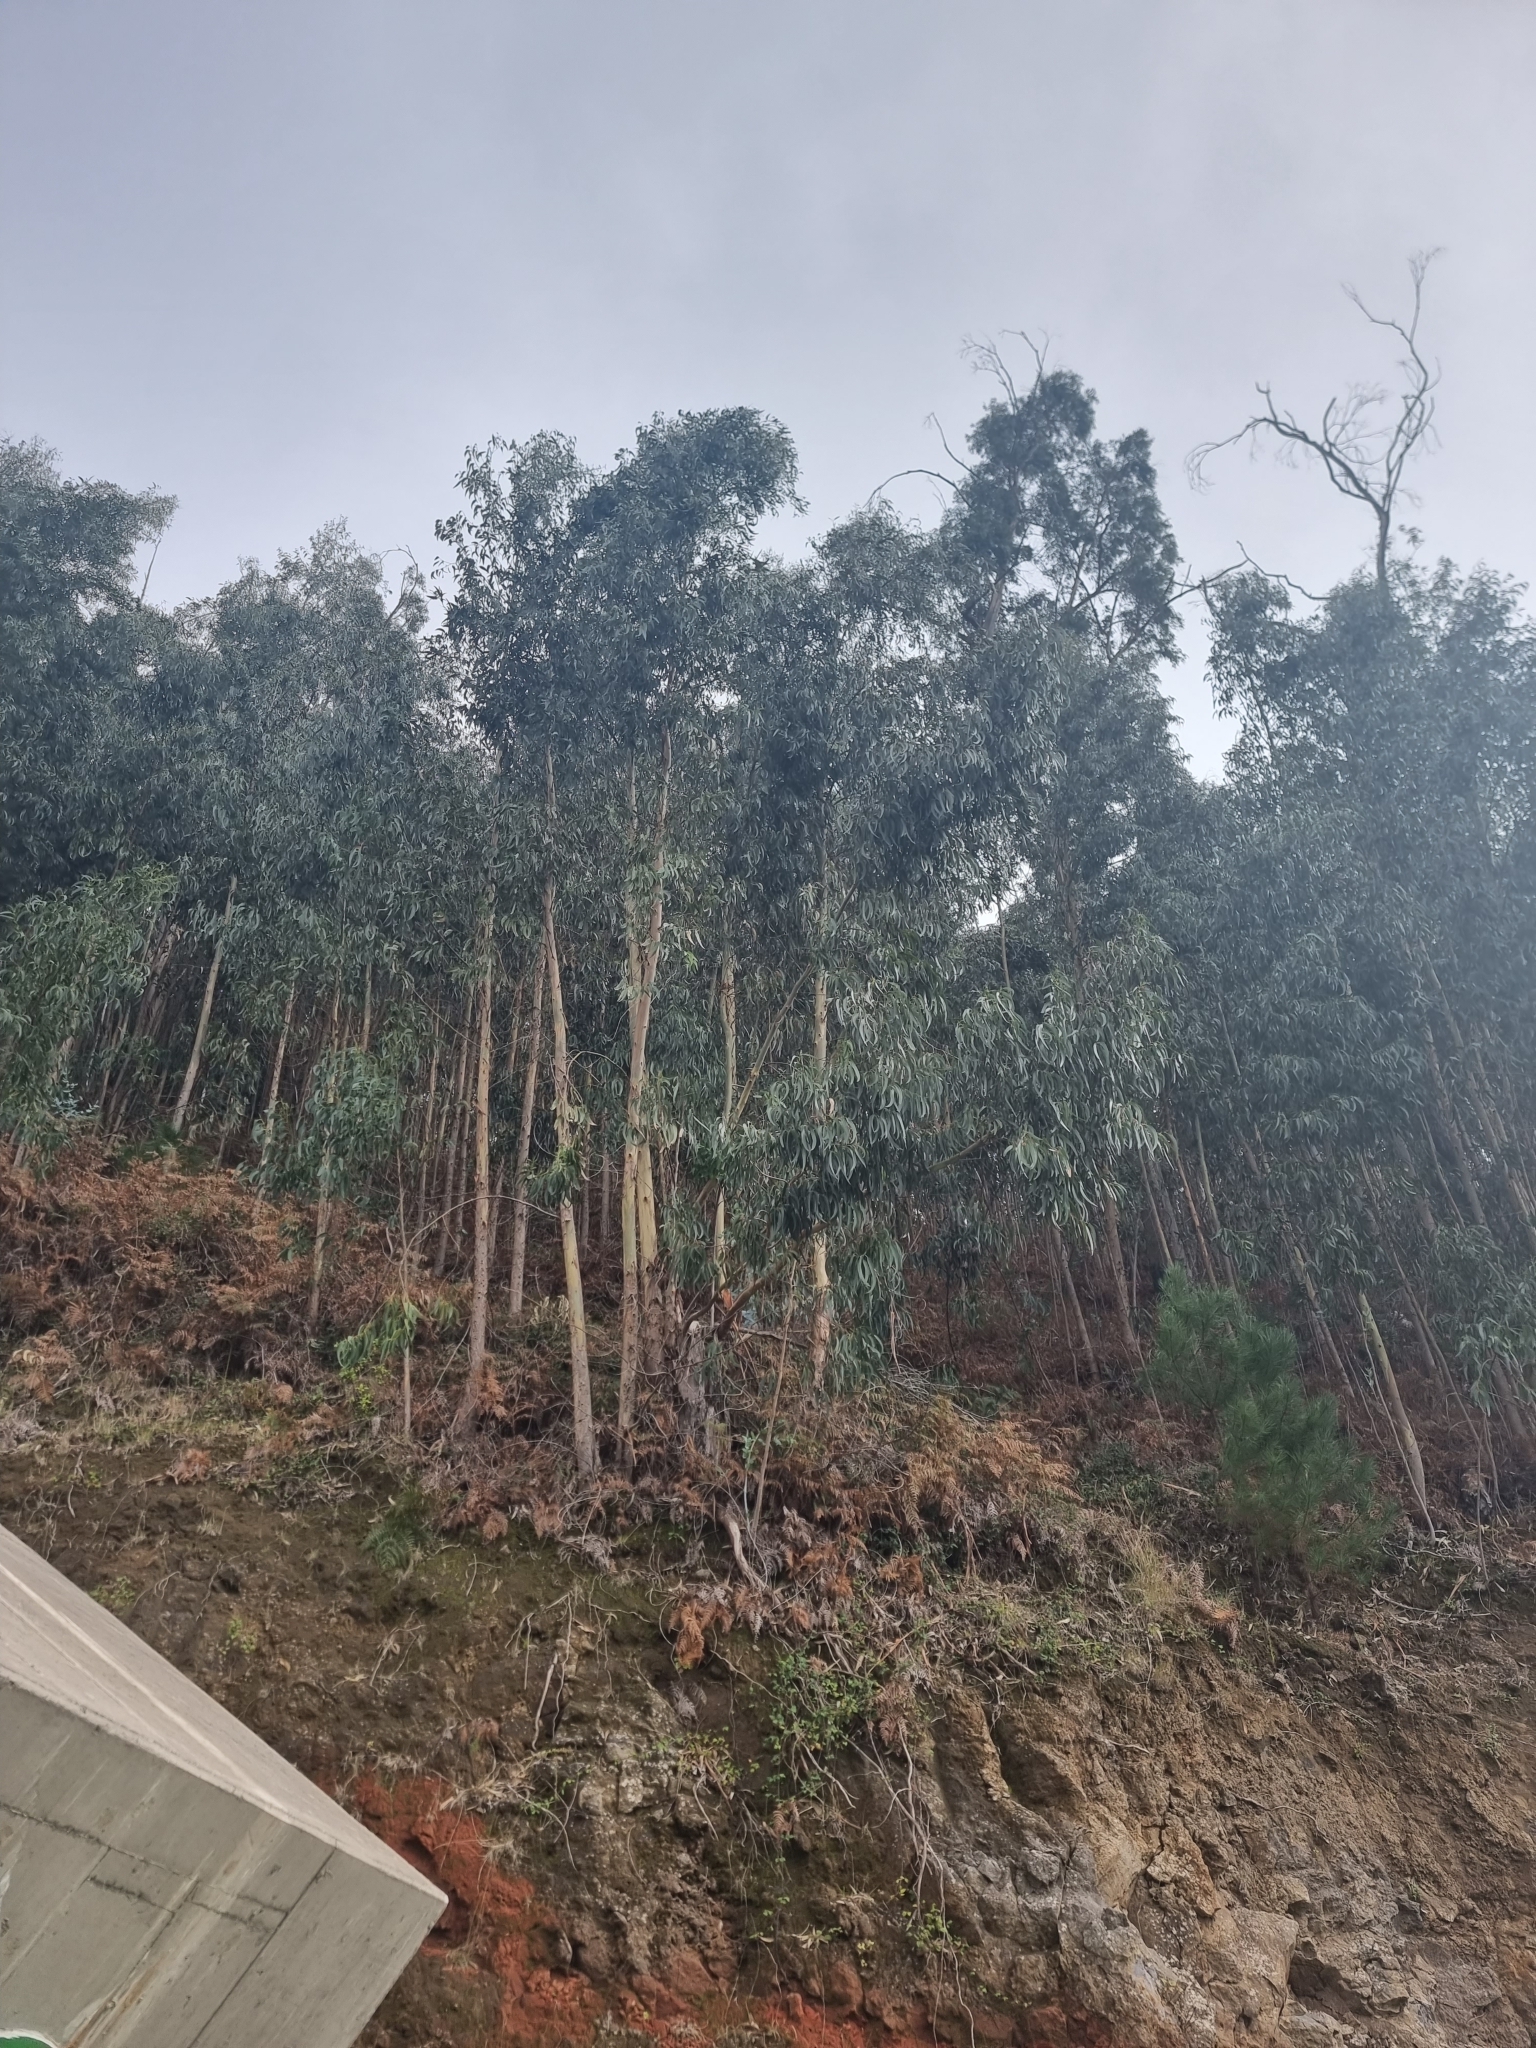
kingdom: Plantae
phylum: Tracheophyta
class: Magnoliopsida
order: Myrtales
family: Myrtaceae
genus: Eucalyptus
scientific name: Eucalyptus globulus
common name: Southern blue-gum
